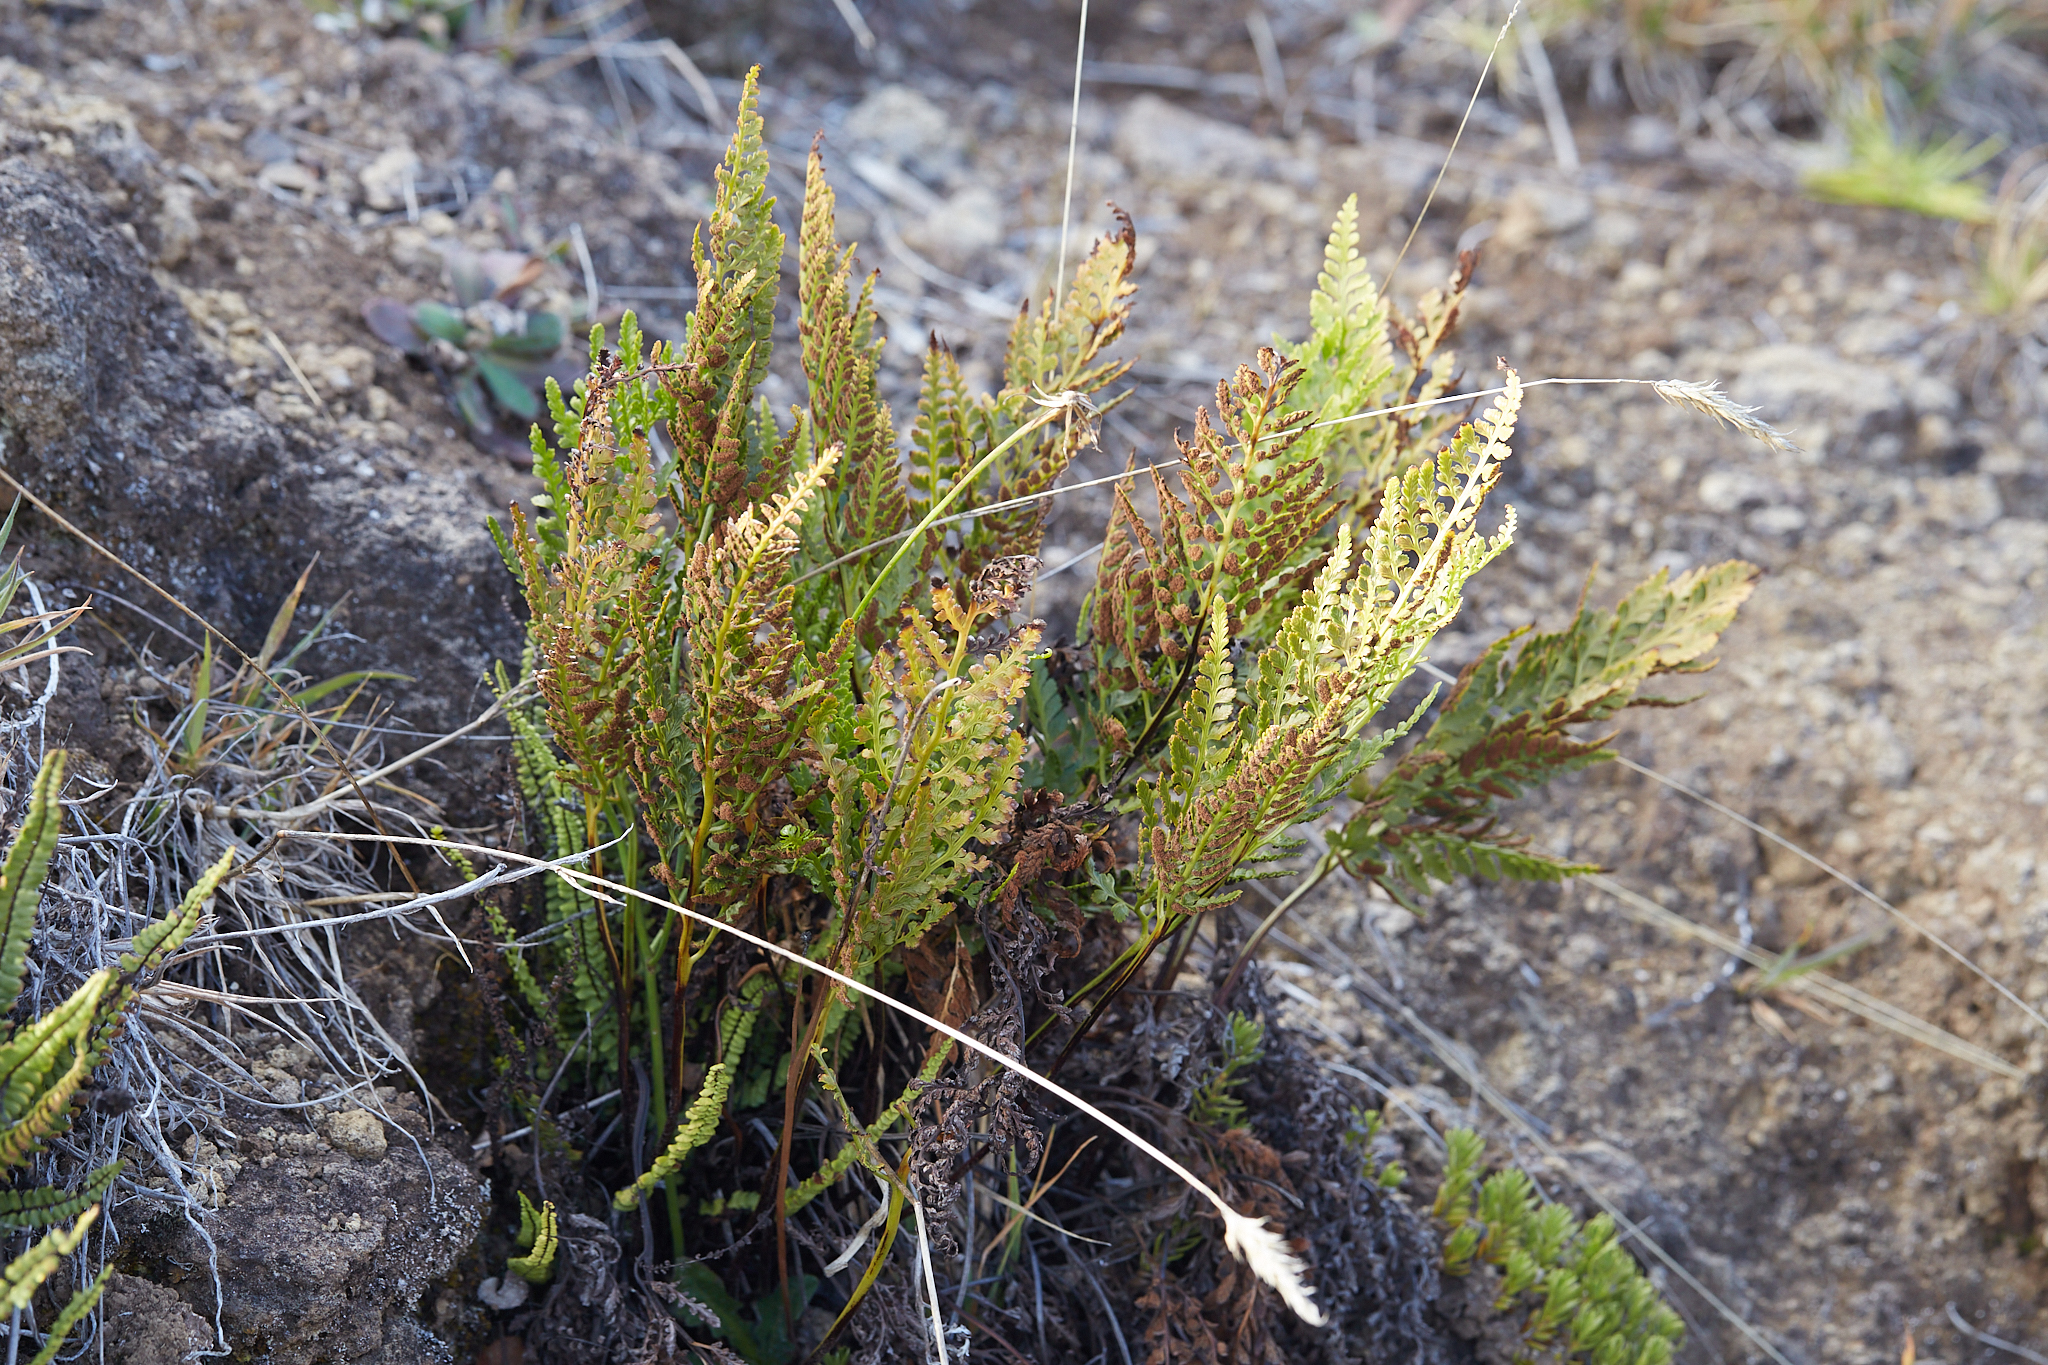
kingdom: Plantae
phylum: Tracheophyta
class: Polypodiopsida
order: Polypodiales
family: Aspleniaceae
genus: Asplenium
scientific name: Asplenium adiantum-nigrum
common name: Black spleenwort
